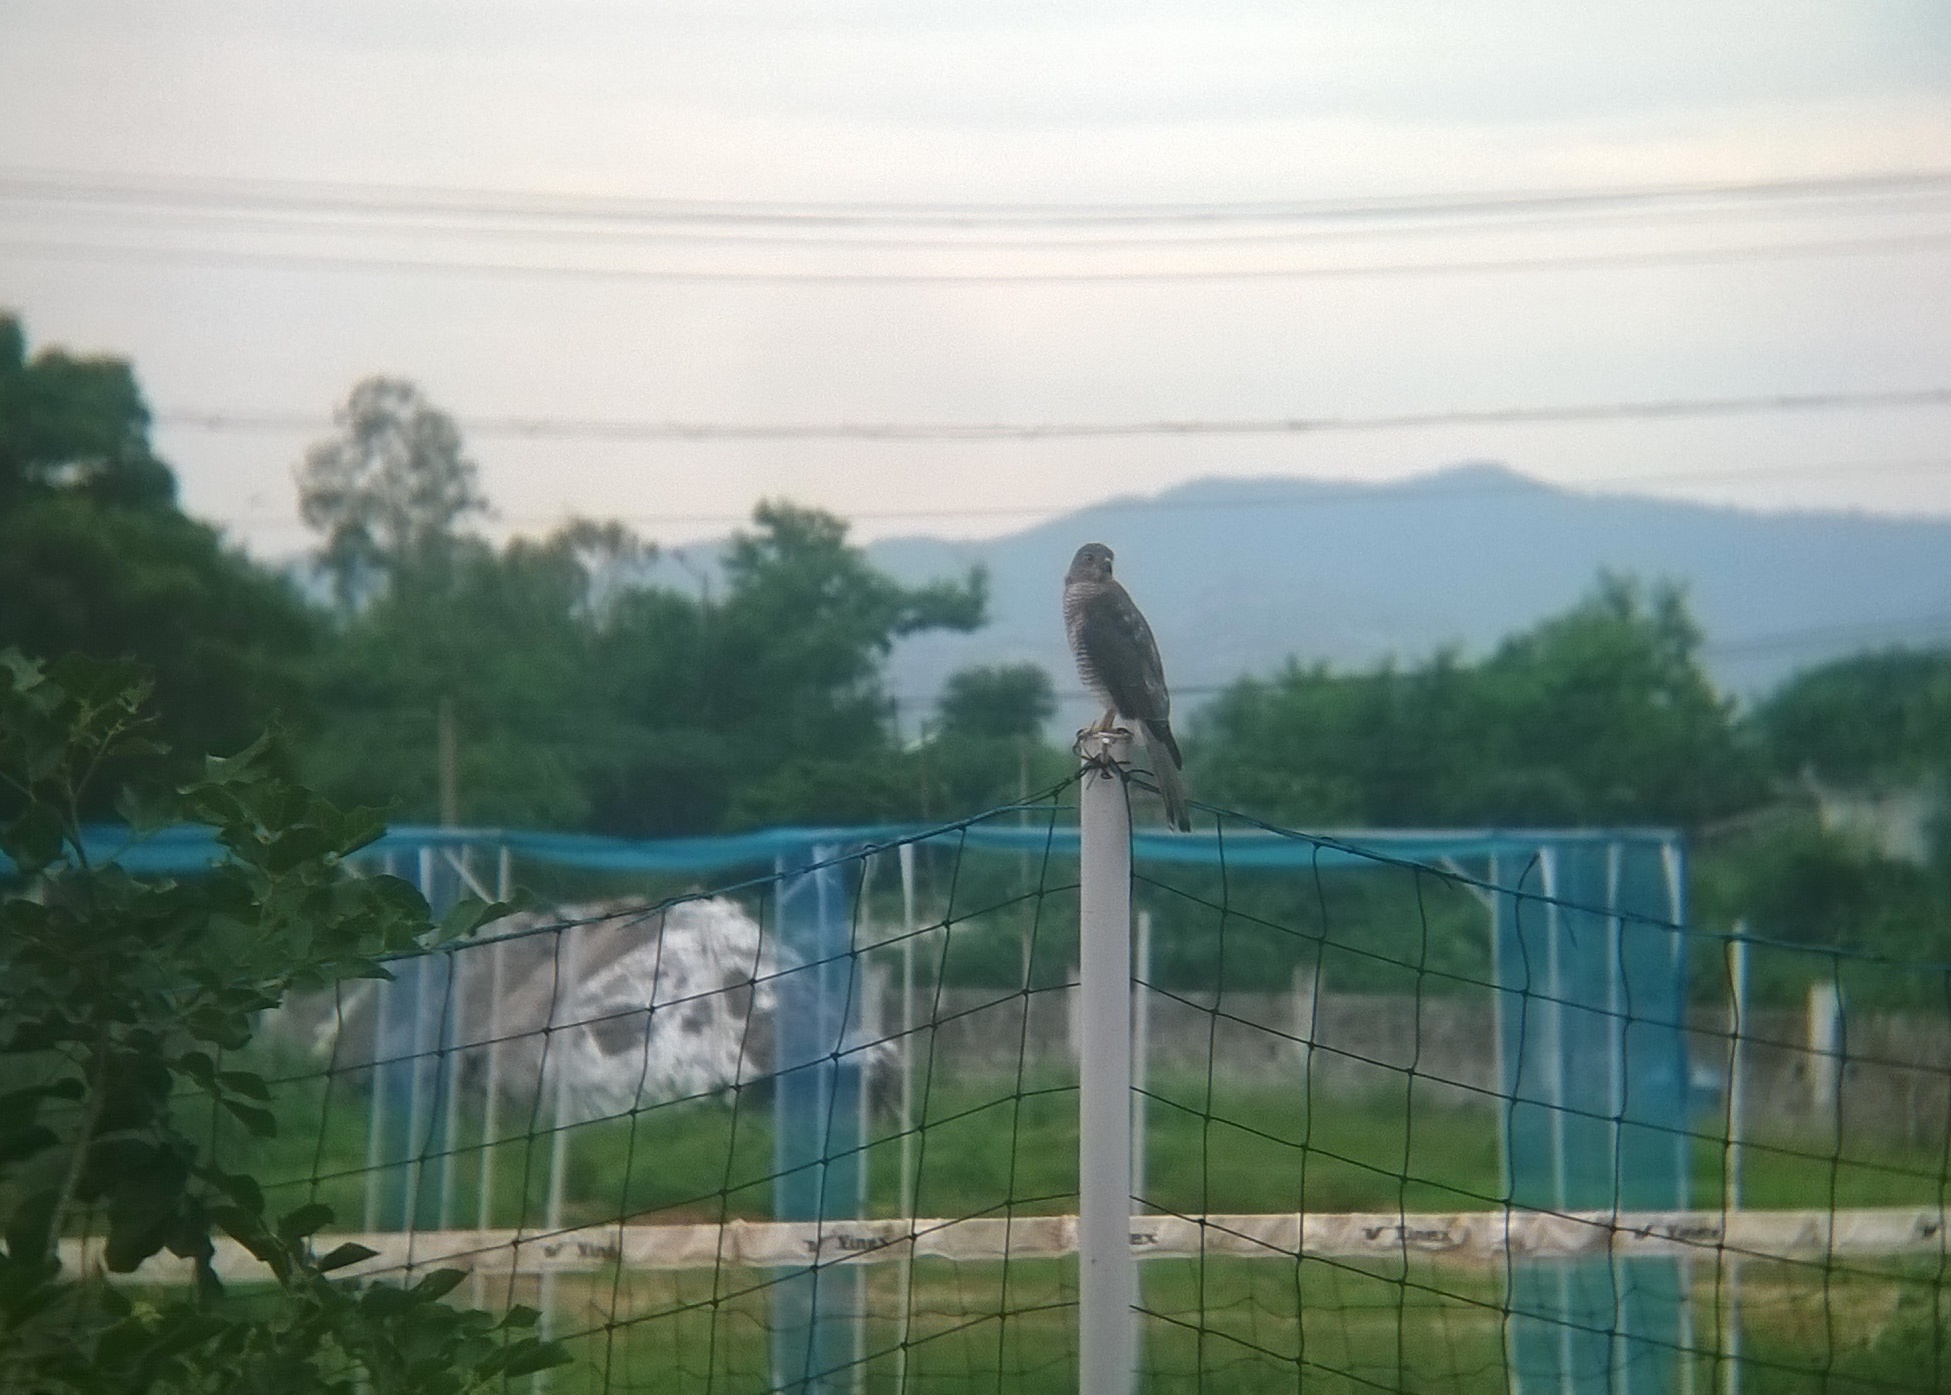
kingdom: Animalia
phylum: Chordata
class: Aves
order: Accipitriformes
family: Accipitridae
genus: Accipiter
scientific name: Accipiter badius
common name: Shikra
